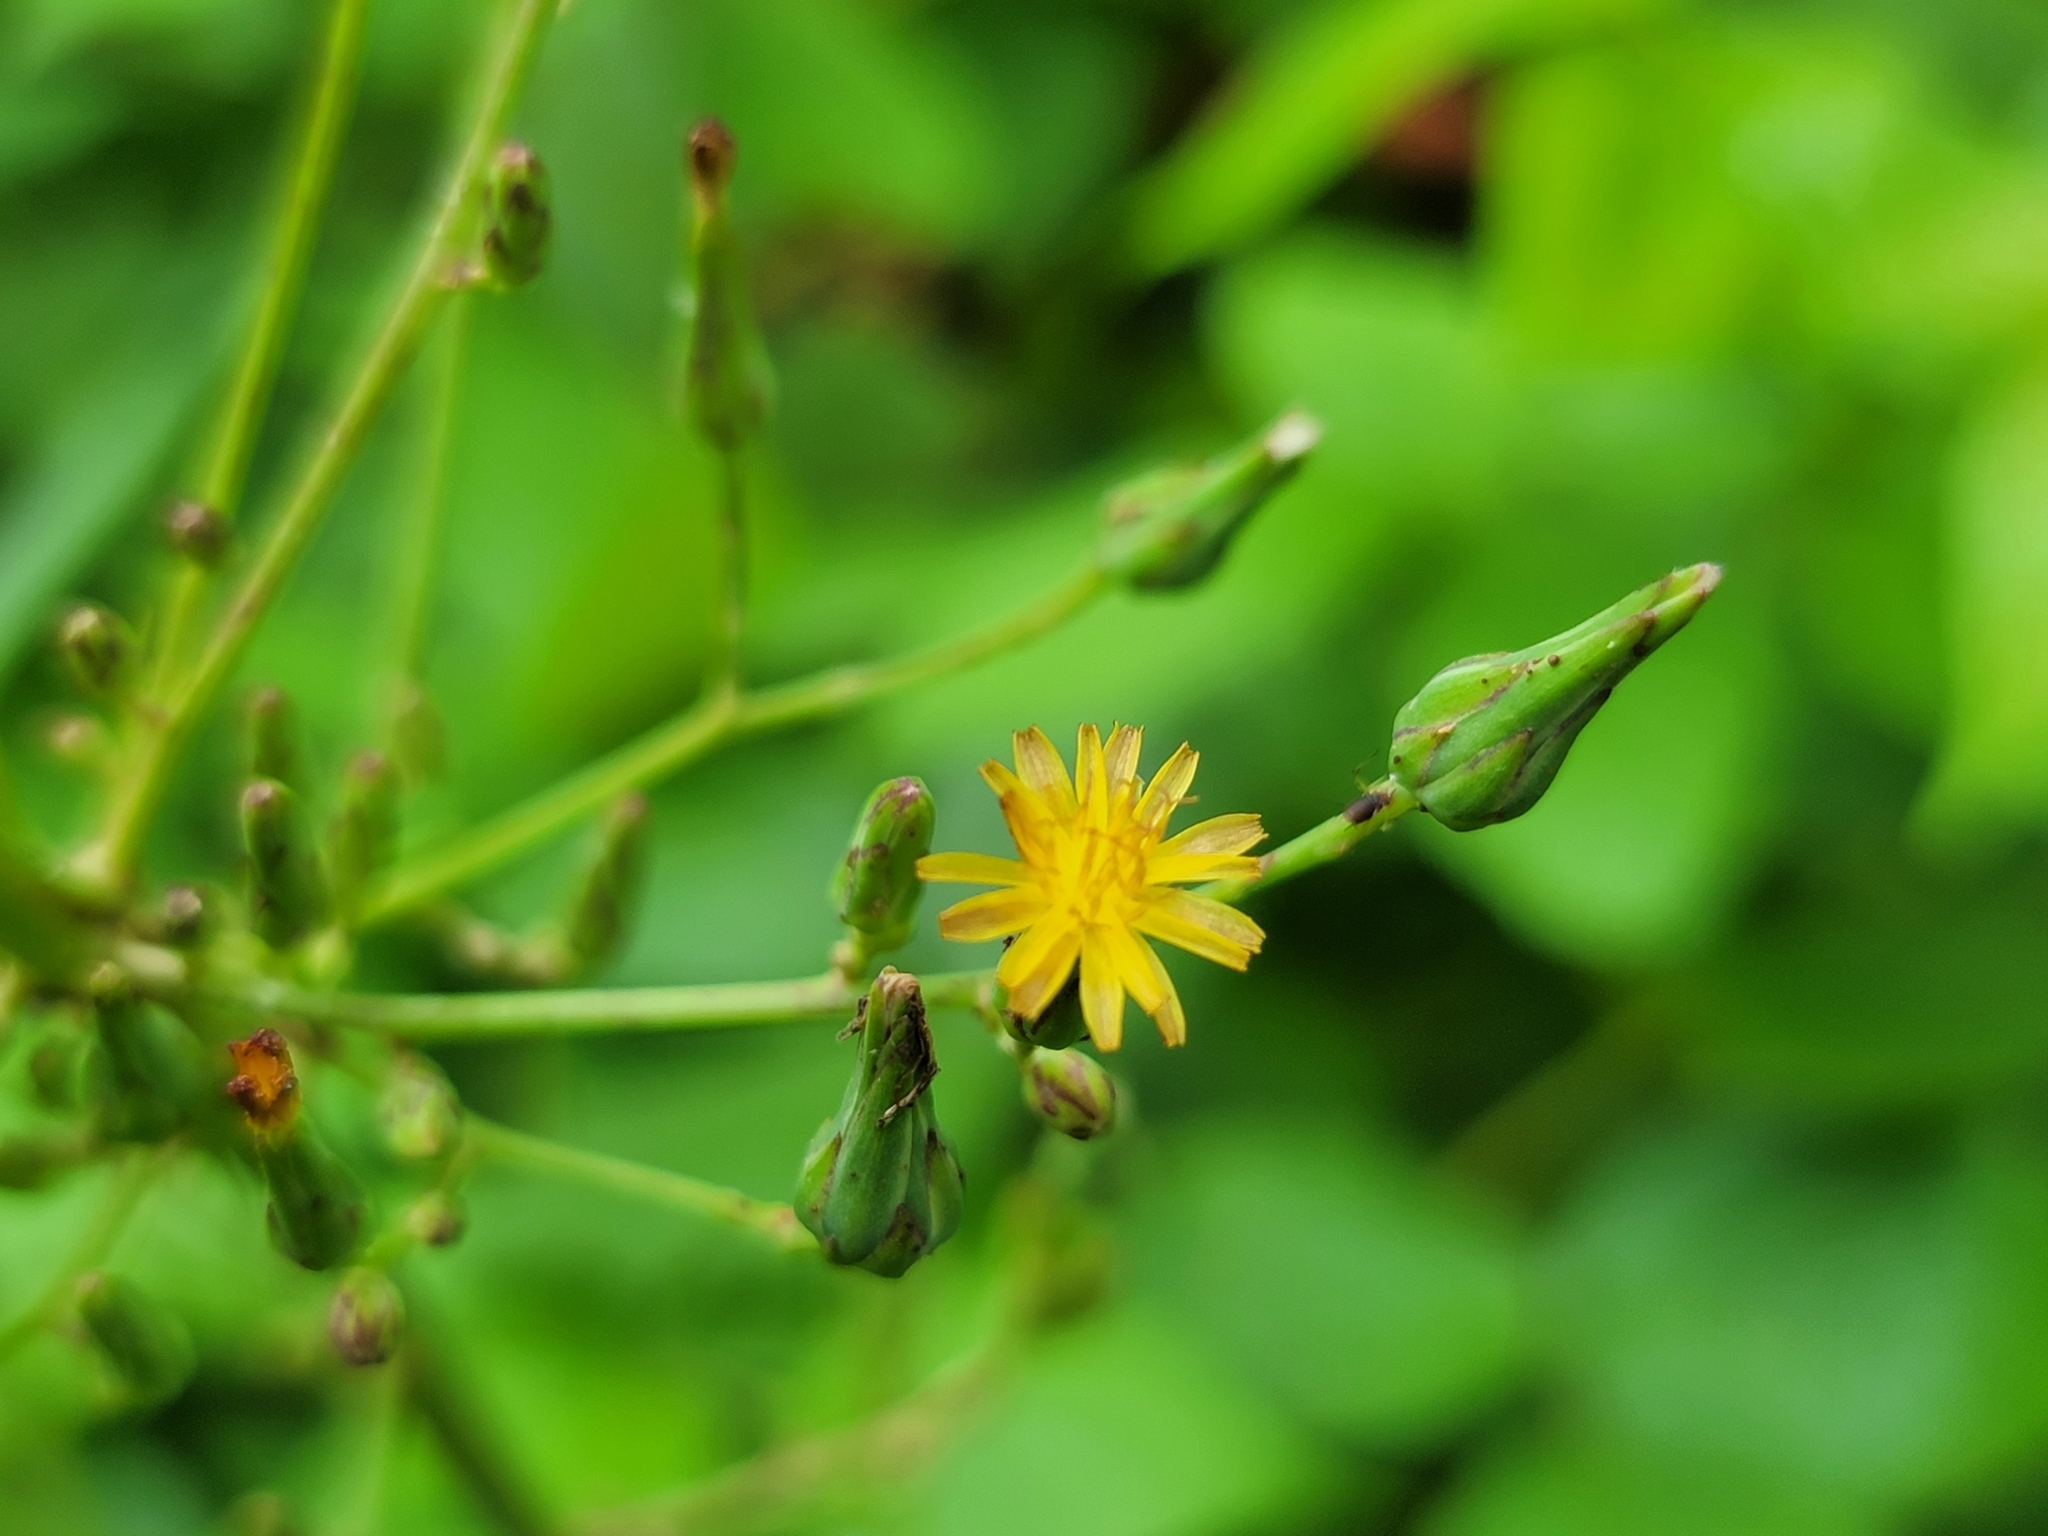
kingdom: Plantae
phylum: Tracheophyta
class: Magnoliopsida
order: Asterales
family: Asteraceae
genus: Lactuca
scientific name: Lactuca canadensis
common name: Canada lettuce
